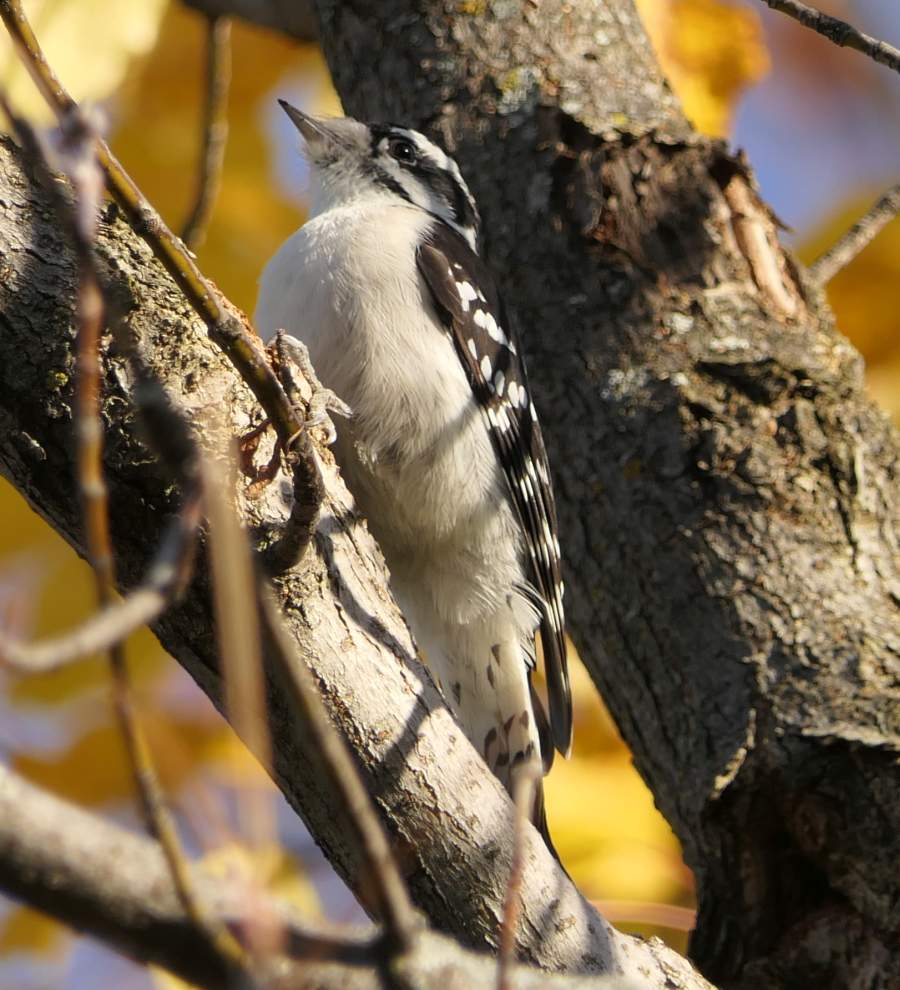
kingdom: Animalia
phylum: Chordata
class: Aves
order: Piciformes
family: Picidae
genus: Dryobates
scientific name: Dryobates pubescens
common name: Downy woodpecker
